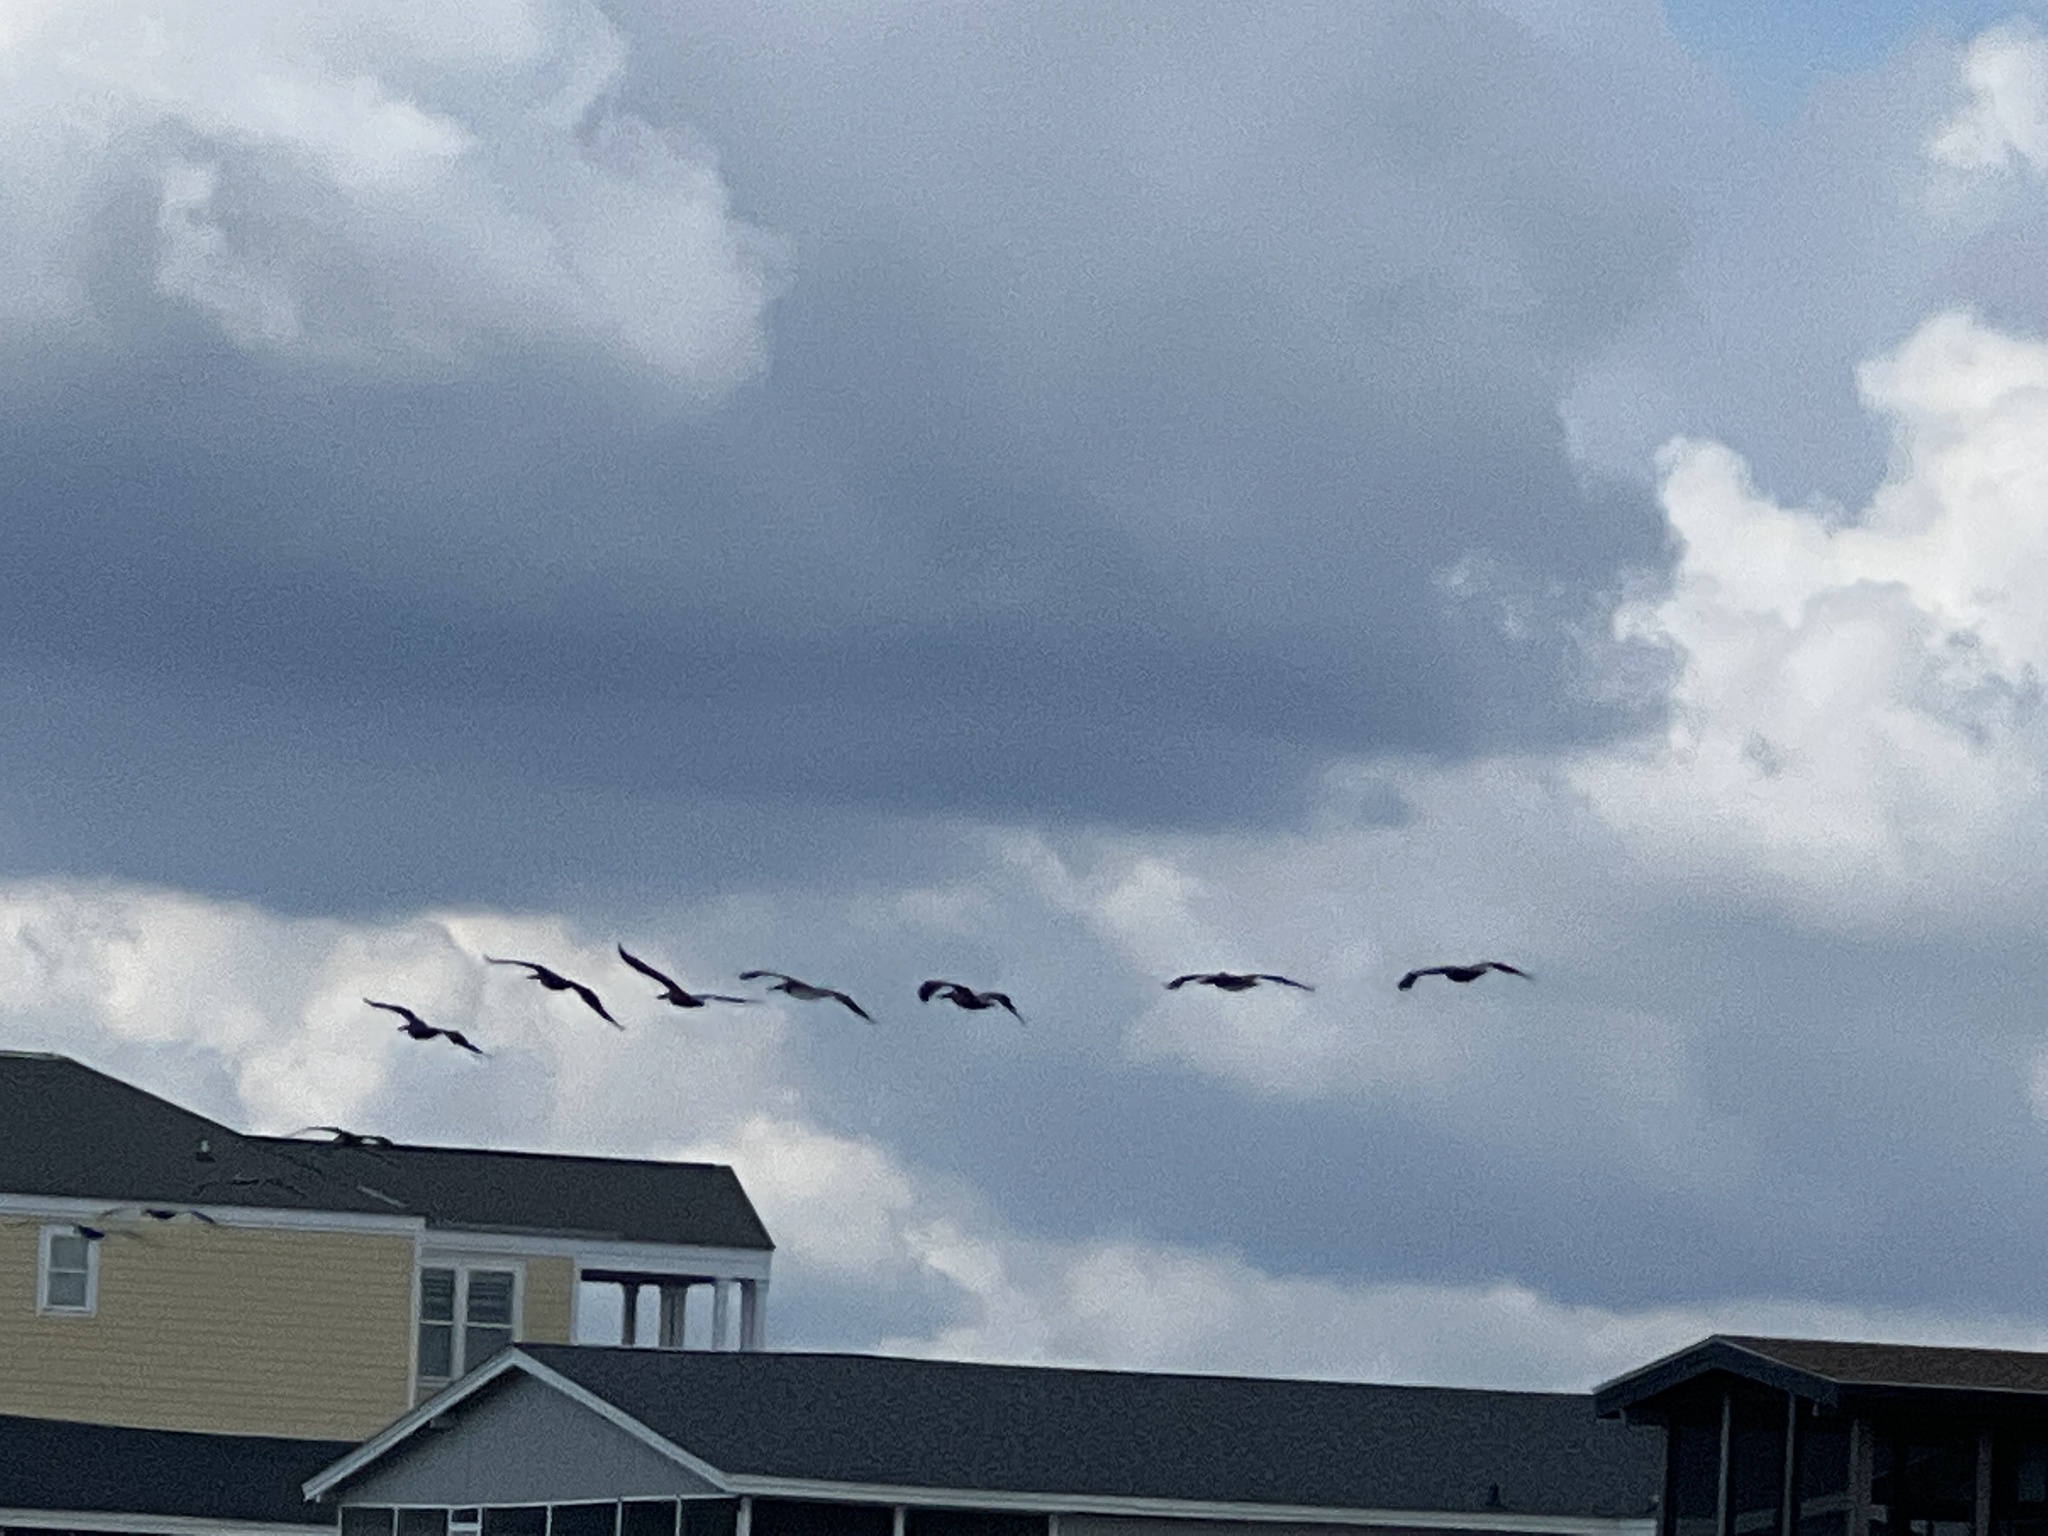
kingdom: Animalia
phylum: Chordata
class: Aves
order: Pelecaniformes
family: Pelecanidae
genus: Pelecanus
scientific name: Pelecanus occidentalis
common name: Brown pelican
